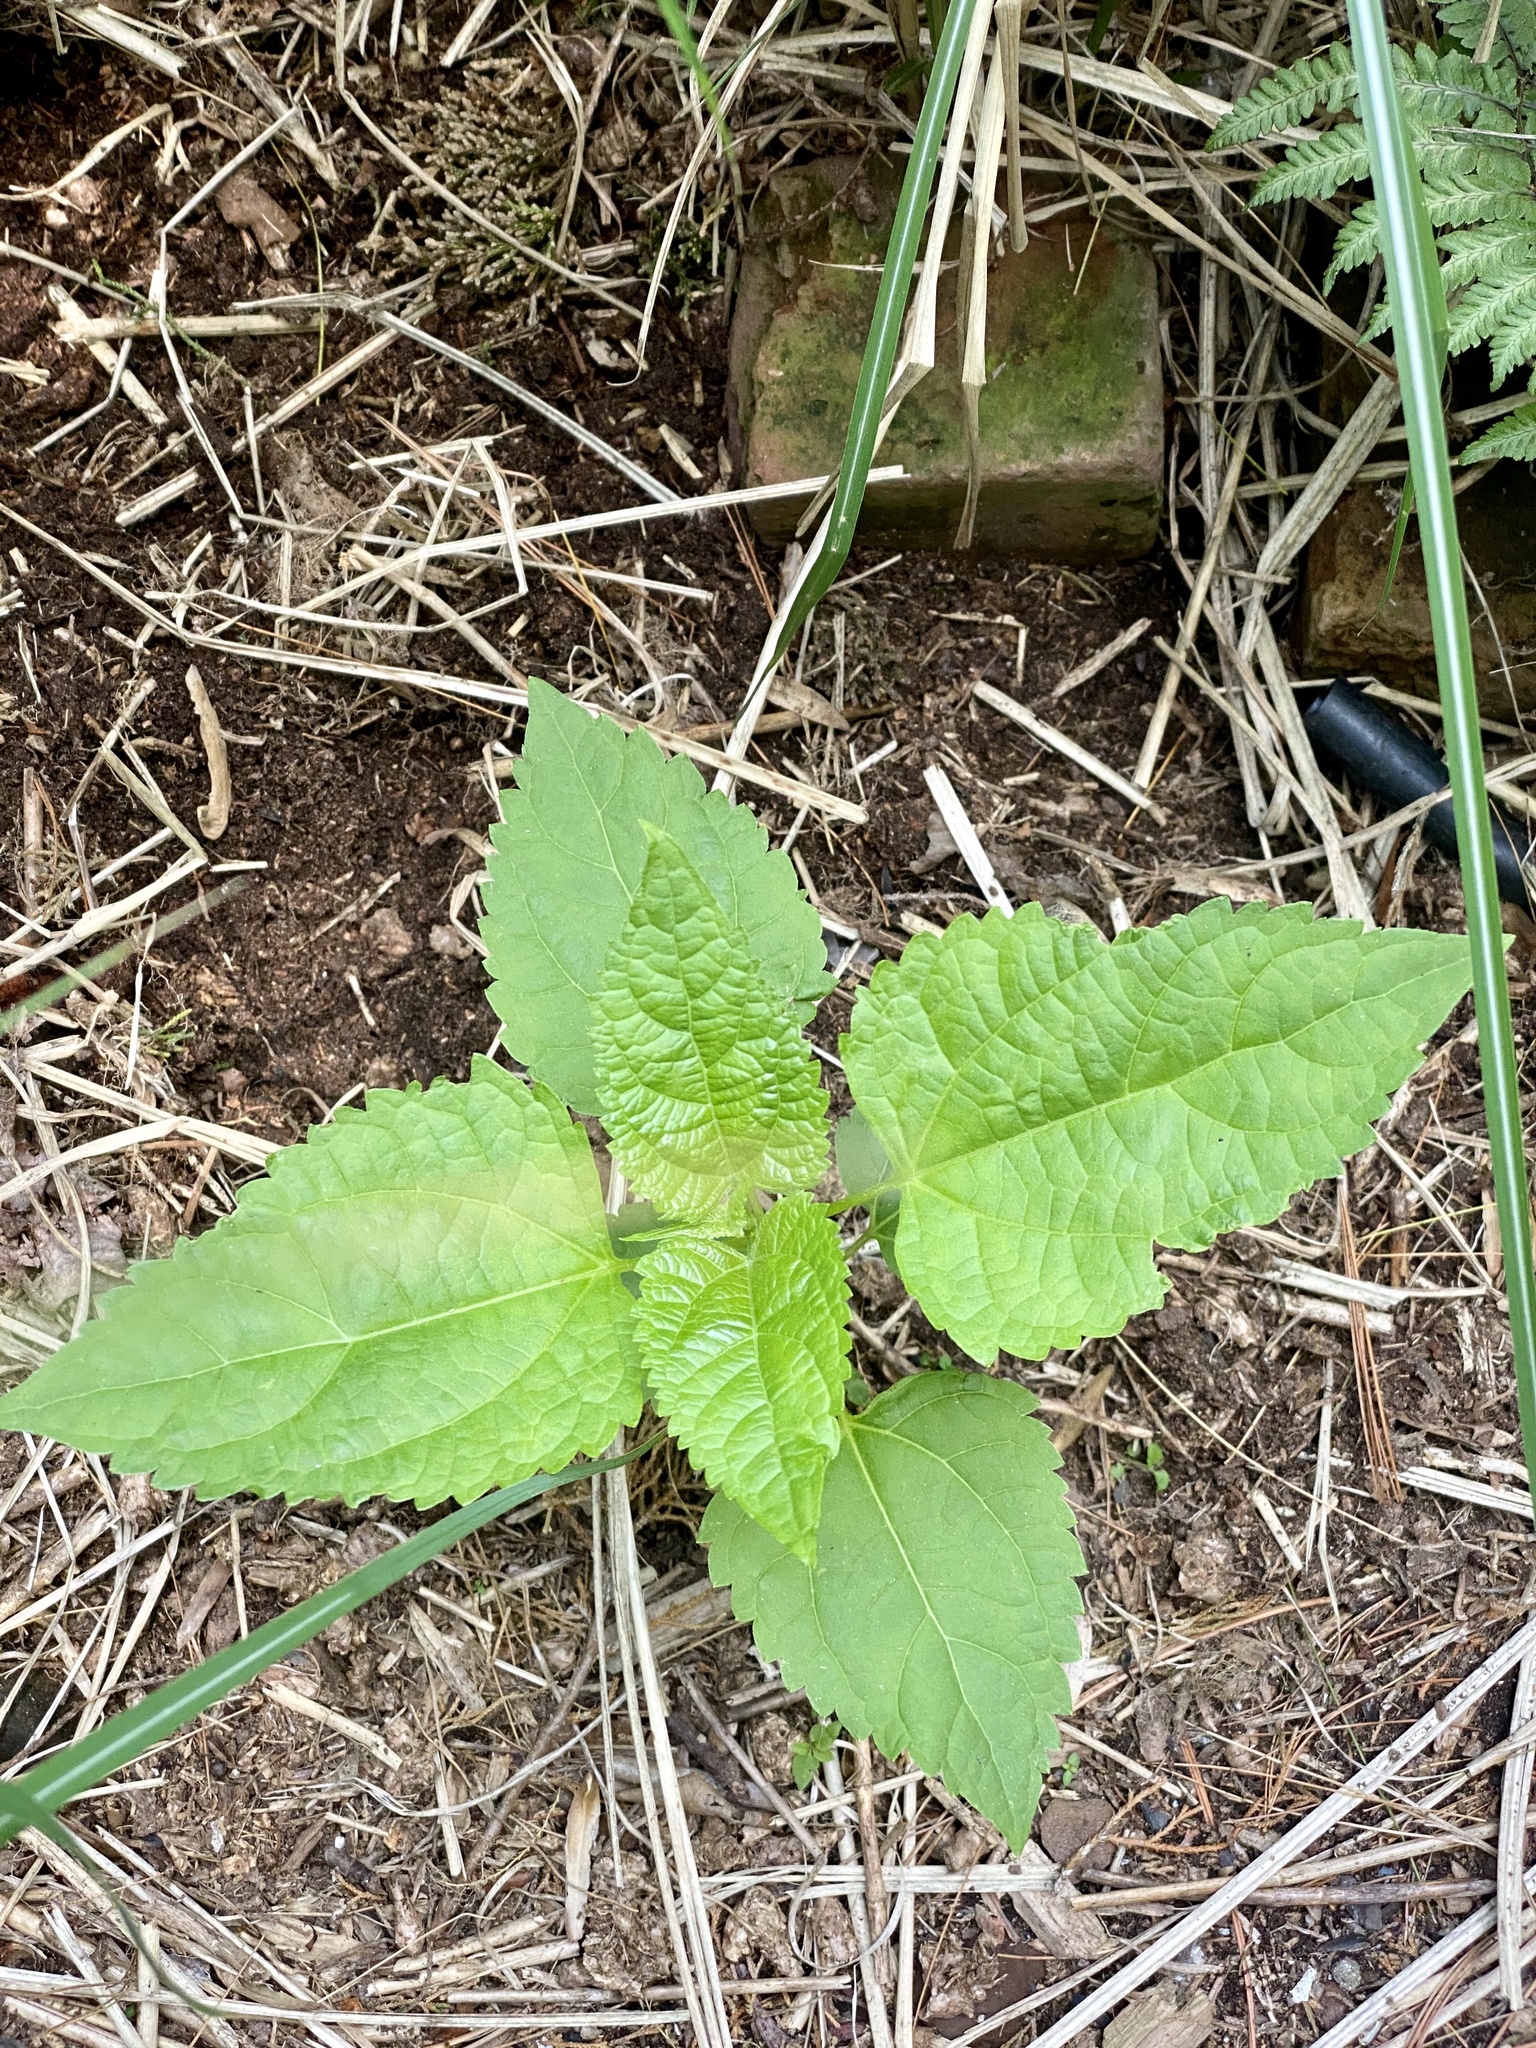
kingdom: Plantae
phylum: Tracheophyta
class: Magnoliopsida
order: Asterales
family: Asteraceae
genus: Ageratina
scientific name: Ageratina altissima
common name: White snakeroot
